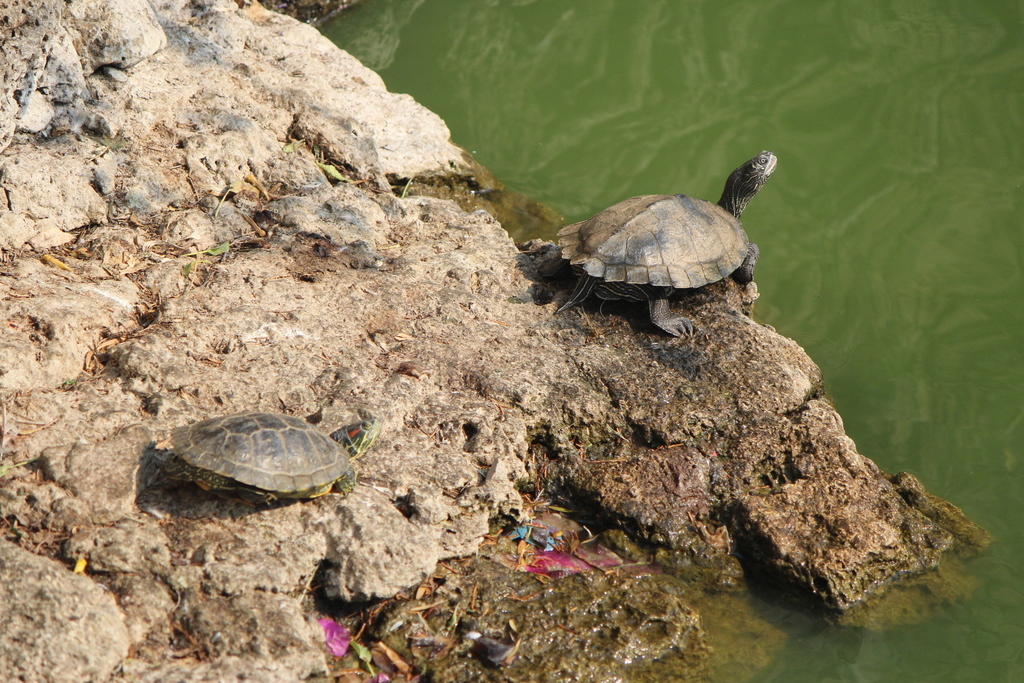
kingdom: Animalia
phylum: Chordata
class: Testudines
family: Emydidae
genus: Graptemys
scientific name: Graptemys pseudogeographica
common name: False map turtle
